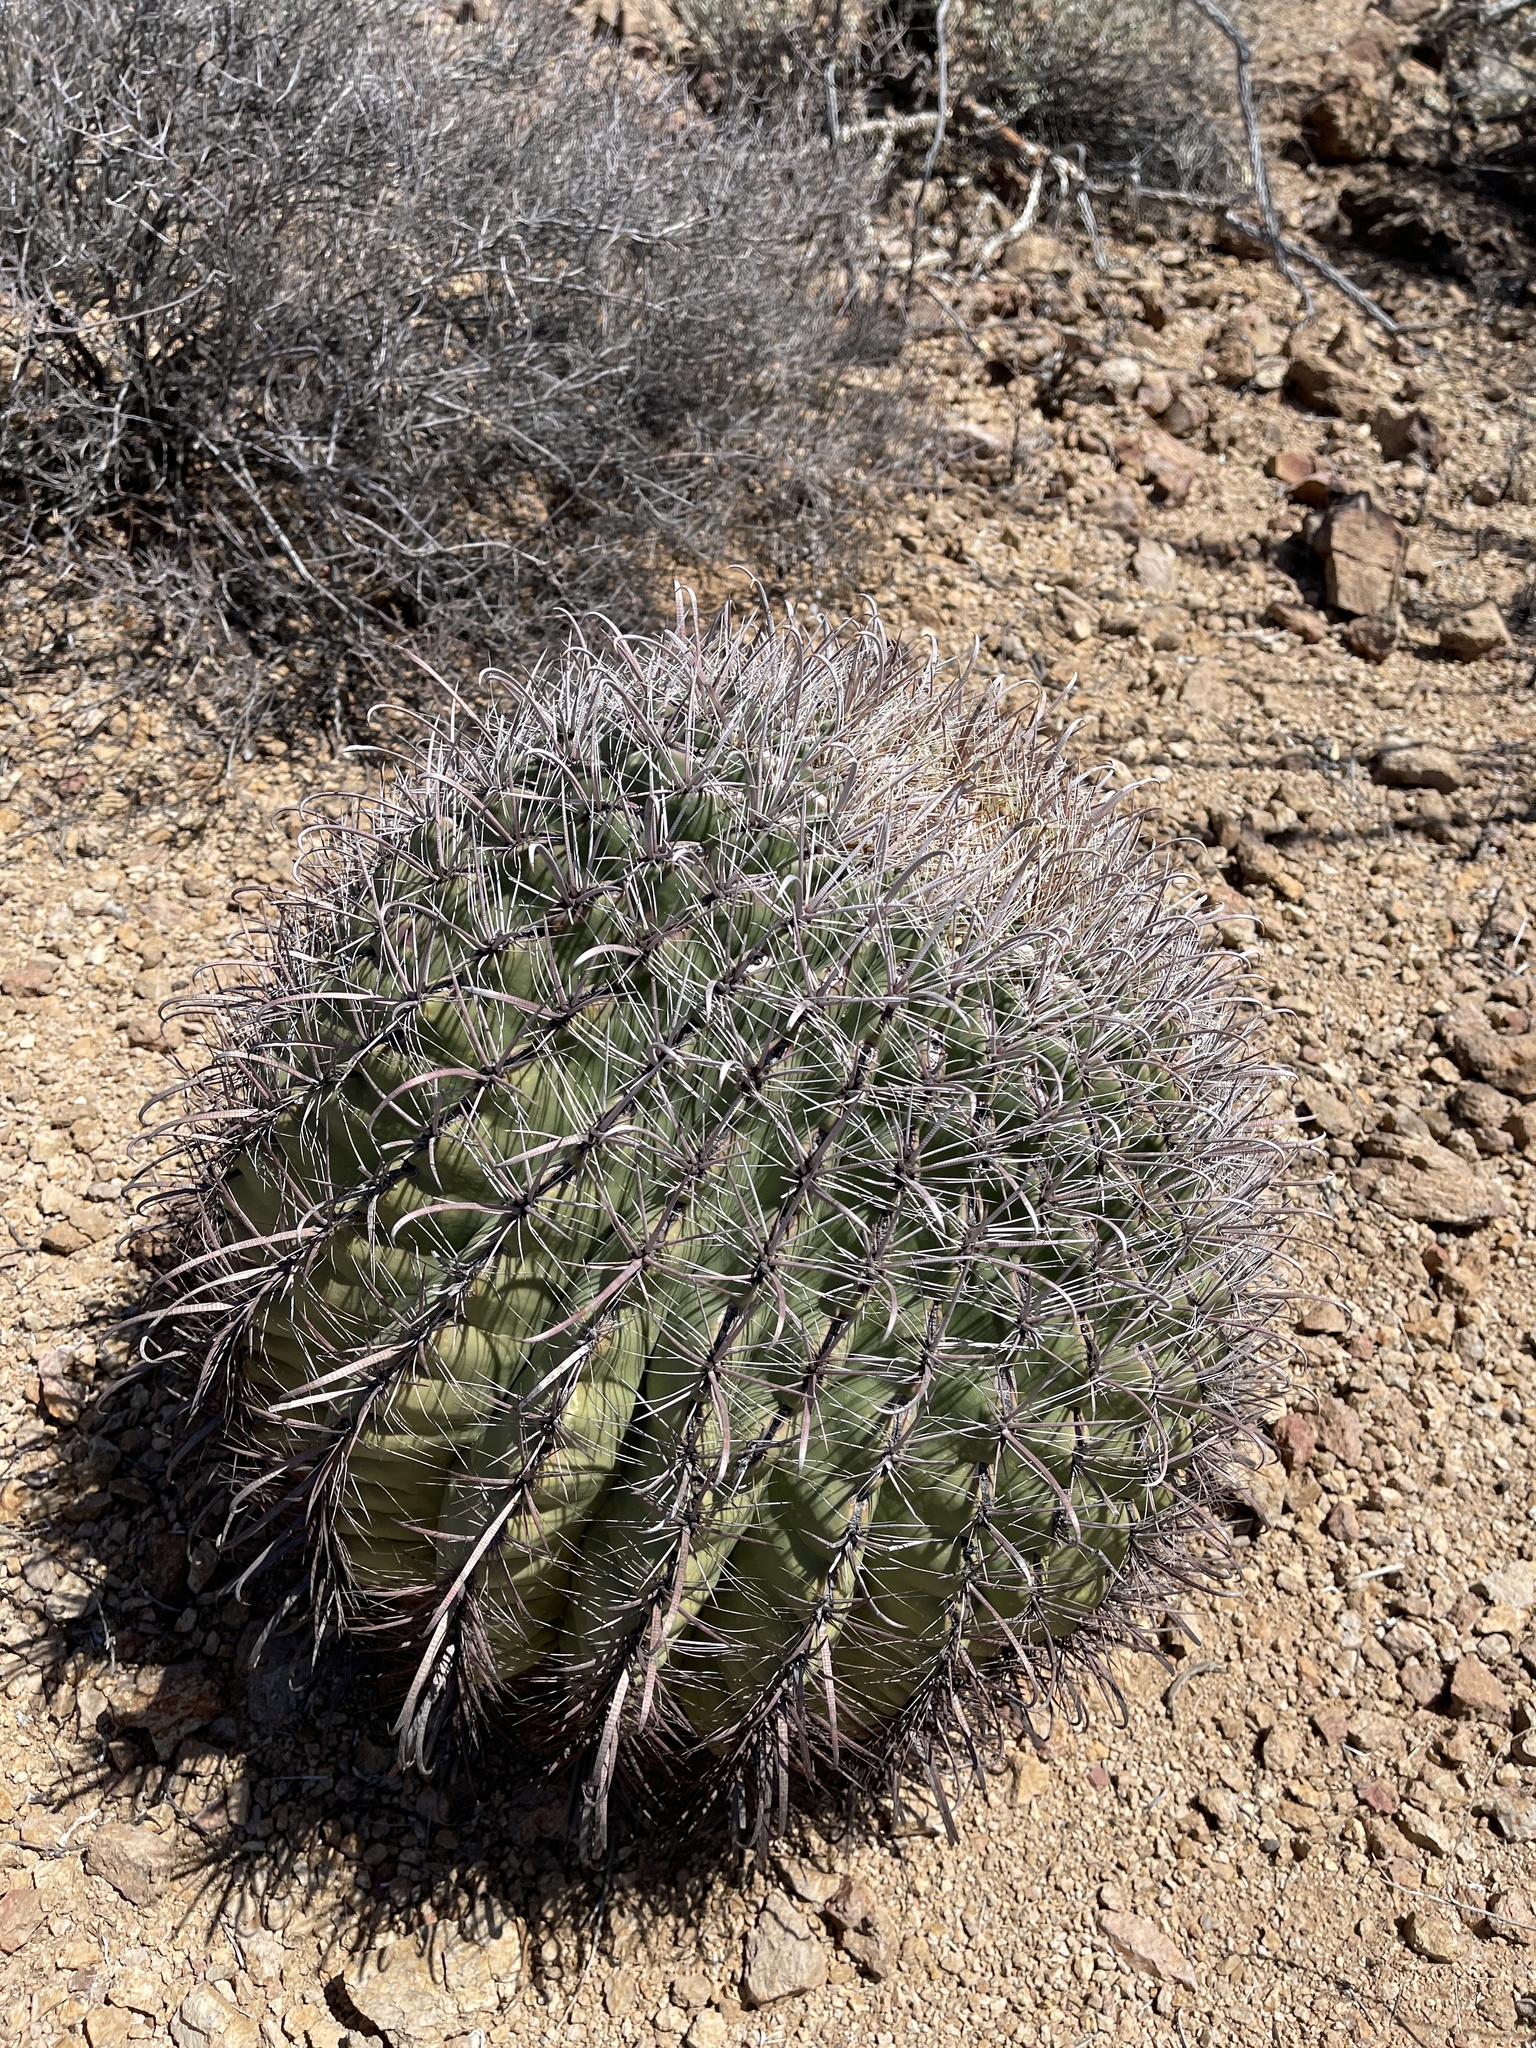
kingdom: Plantae
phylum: Tracheophyta
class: Magnoliopsida
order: Caryophyllales
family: Cactaceae
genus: Ferocactus
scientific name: Ferocactus wislizeni
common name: Candy barrel cactus
